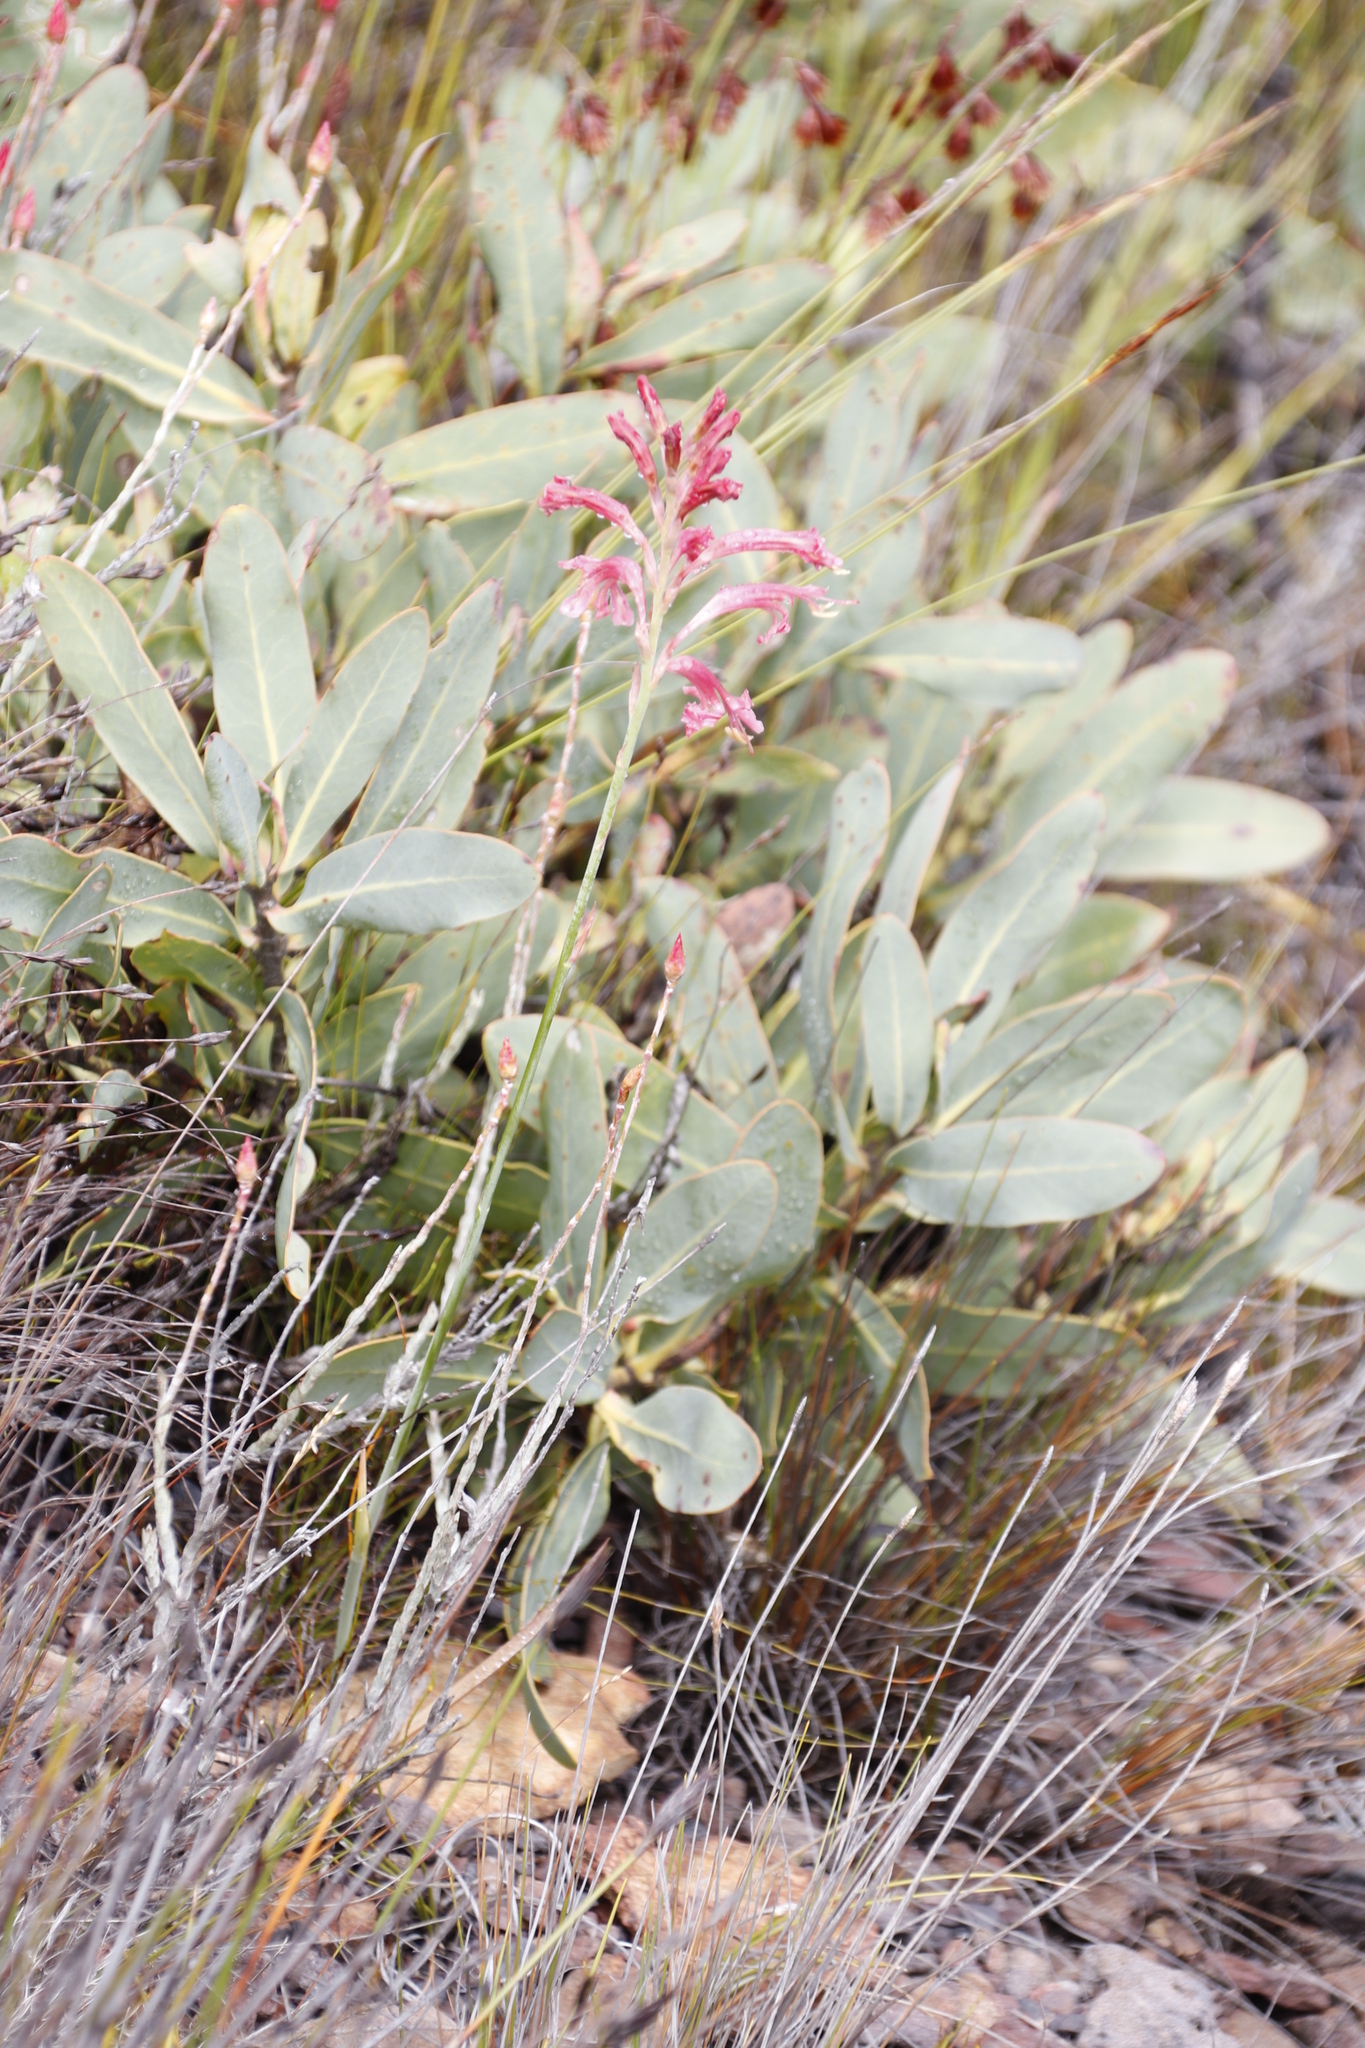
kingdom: Plantae
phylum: Tracheophyta
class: Magnoliopsida
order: Proteales
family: Proteaceae
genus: Protea
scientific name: Protea magnifica
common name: Bearded sugarbush
